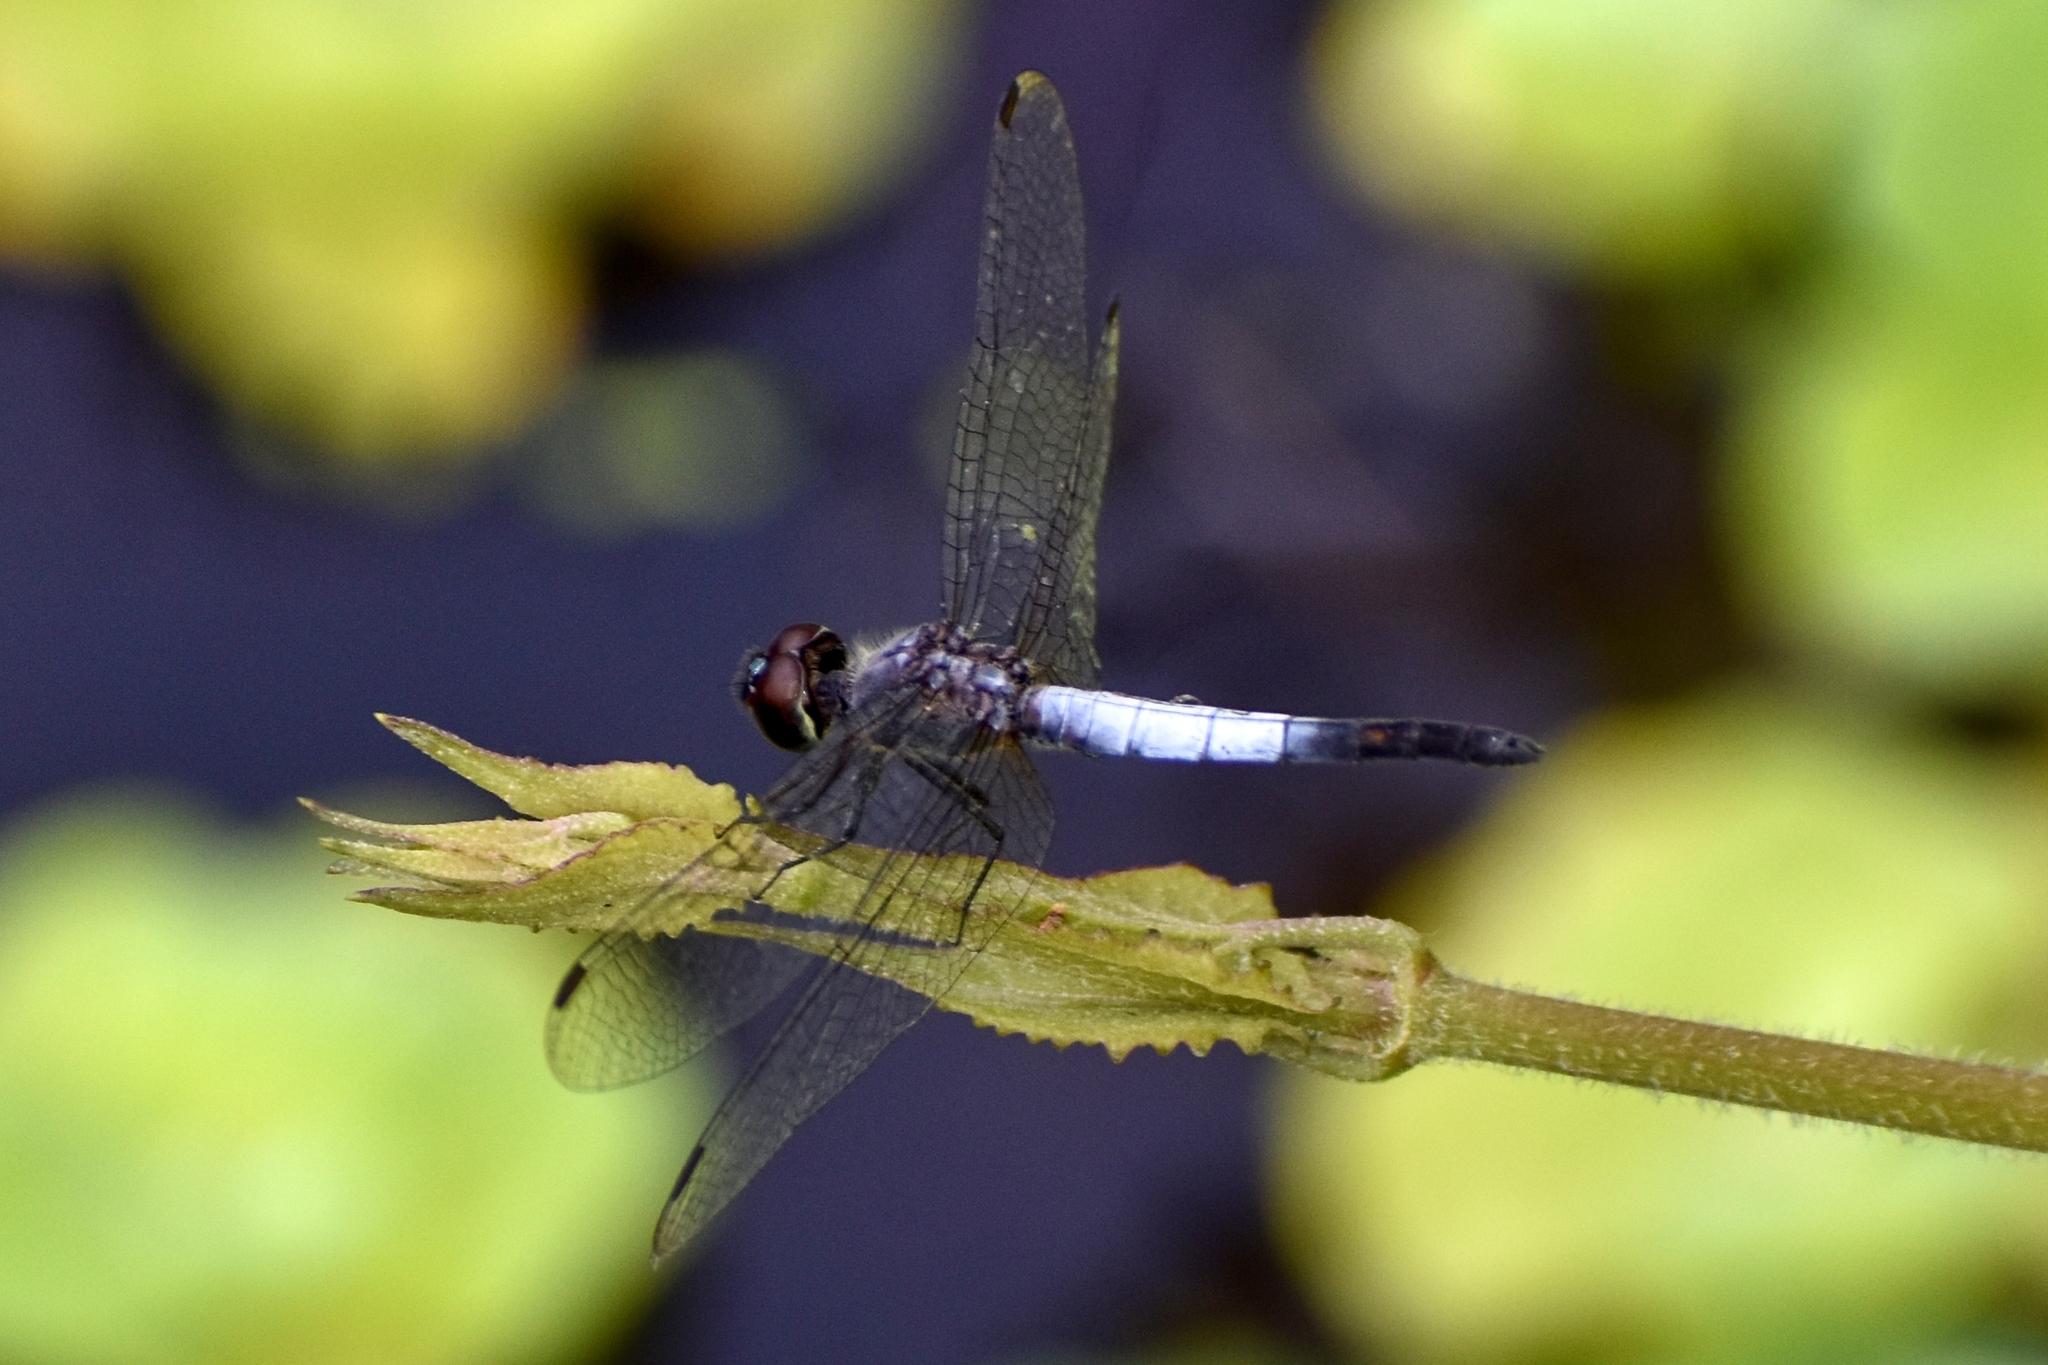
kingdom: Animalia
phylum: Arthropoda
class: Insecta
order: Odonata
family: Libellulidae
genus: Brachydiplax
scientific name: Brachydiplax sobrina
